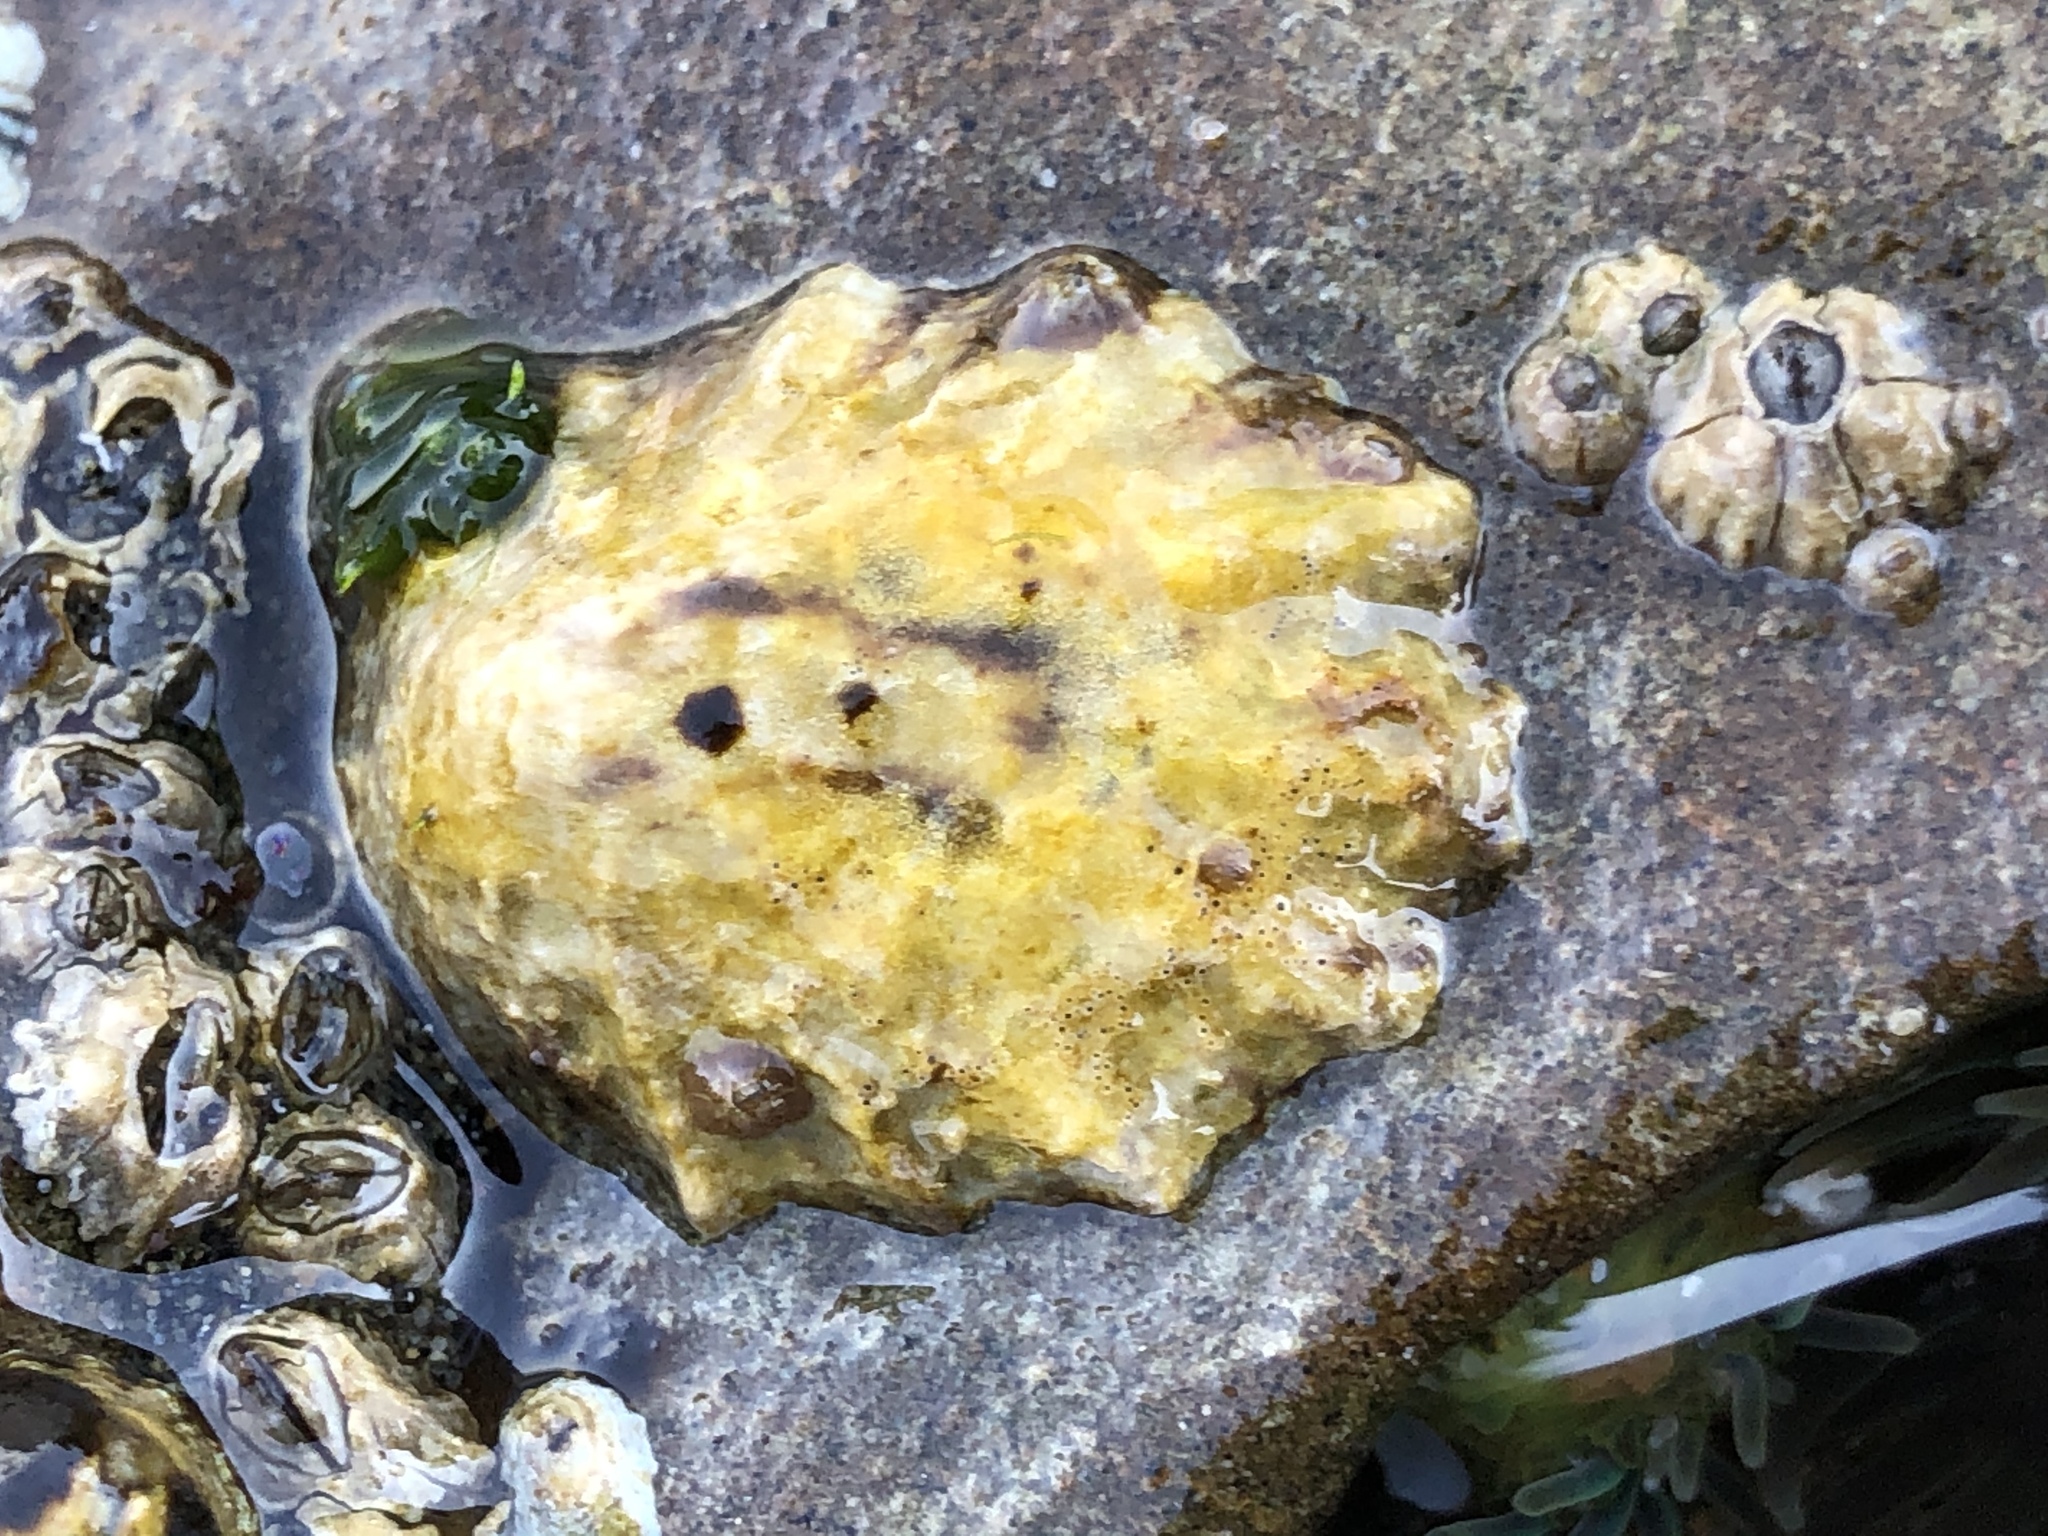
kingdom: Animalia
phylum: Mollusca
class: Gastropoda
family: Lottiidae
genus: Lottia
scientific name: Lottia scabra
